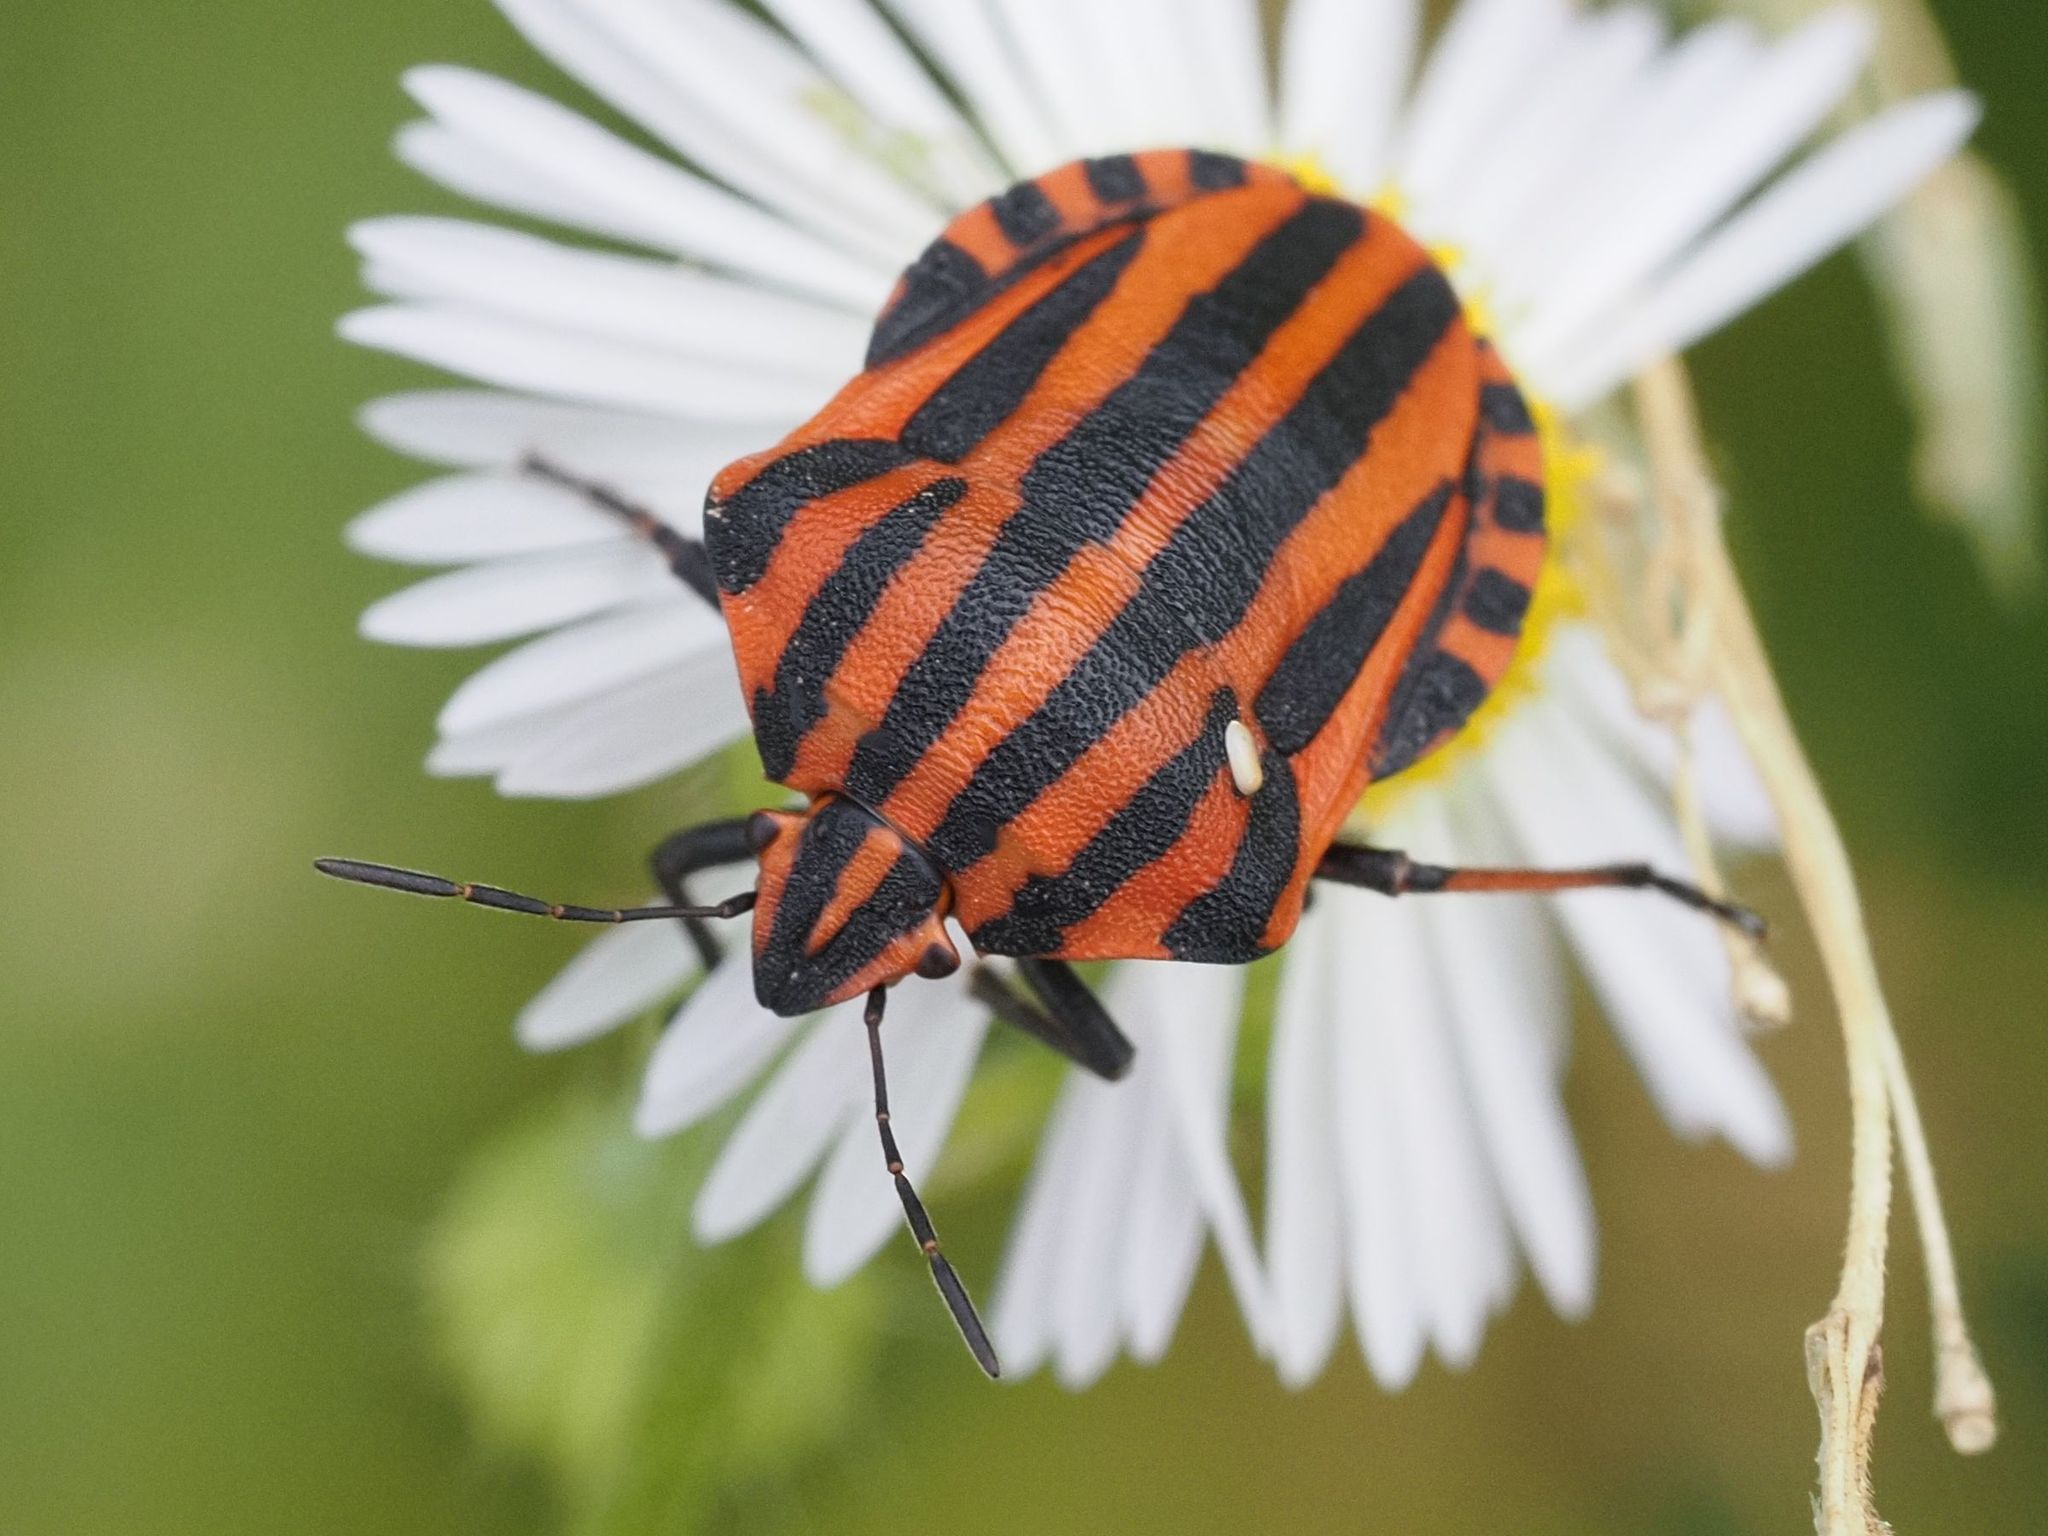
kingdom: Animalia
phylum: Arthropoda
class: Insecta
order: Hemiptera
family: Pentatomidae
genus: Graphosoma
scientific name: Graphosoma italicum
